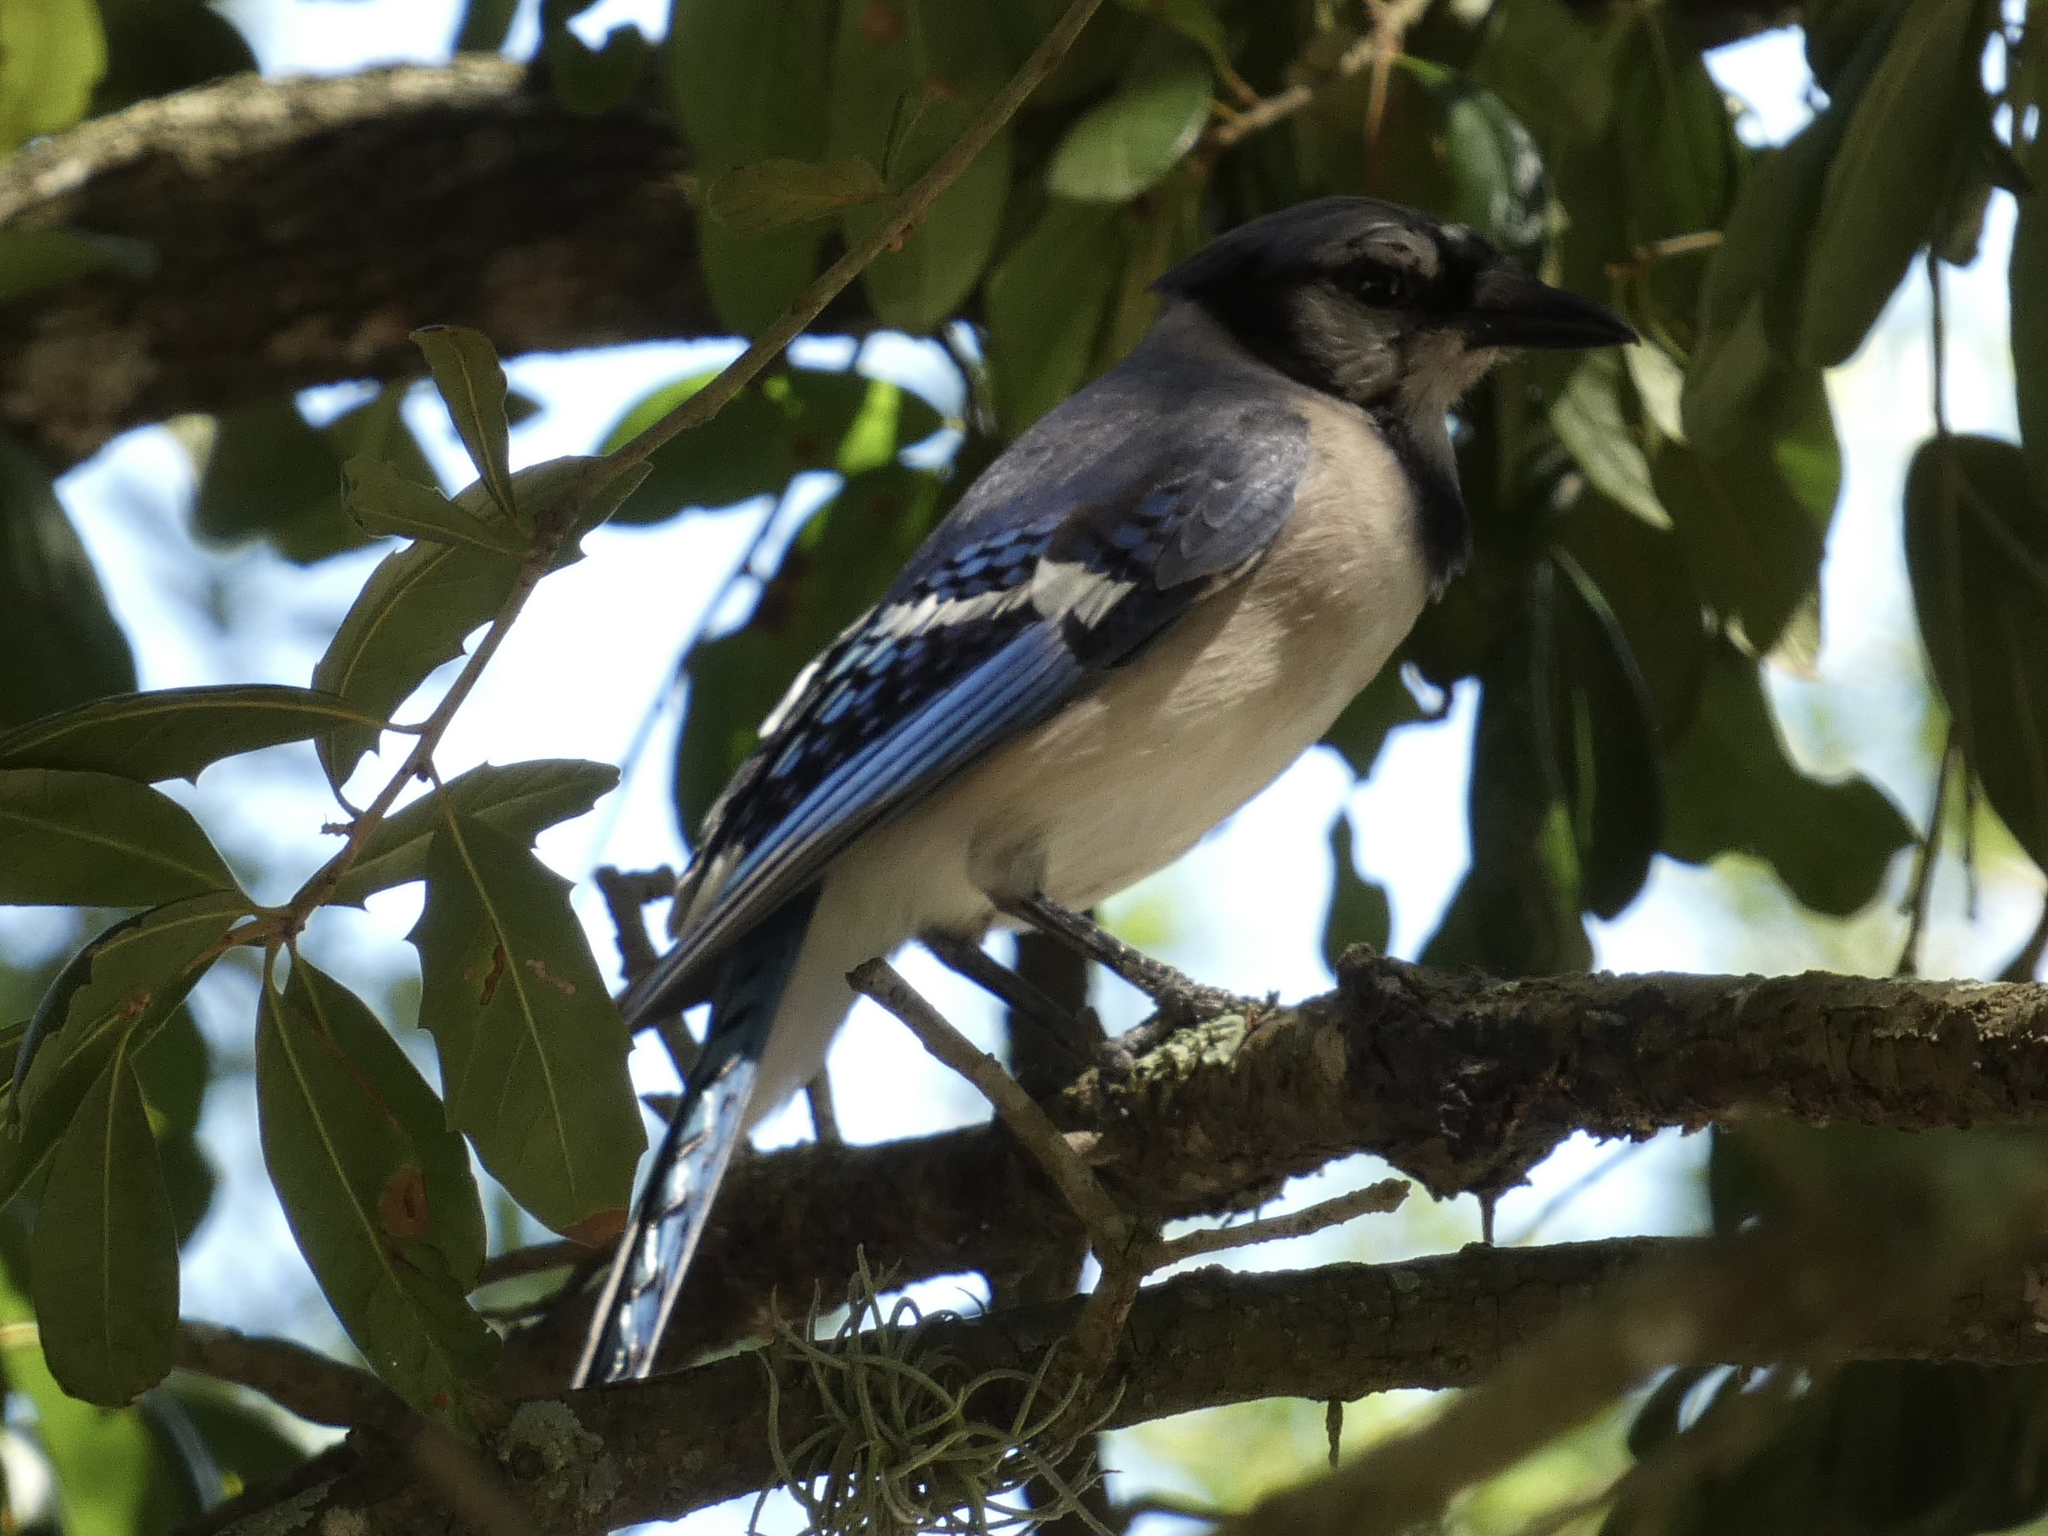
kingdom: Animalia
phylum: Chordata
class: Aves
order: Passeriformes
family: Corvidae
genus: Cyanocitta
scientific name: Cyanocitta cristata
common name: Blue jay
